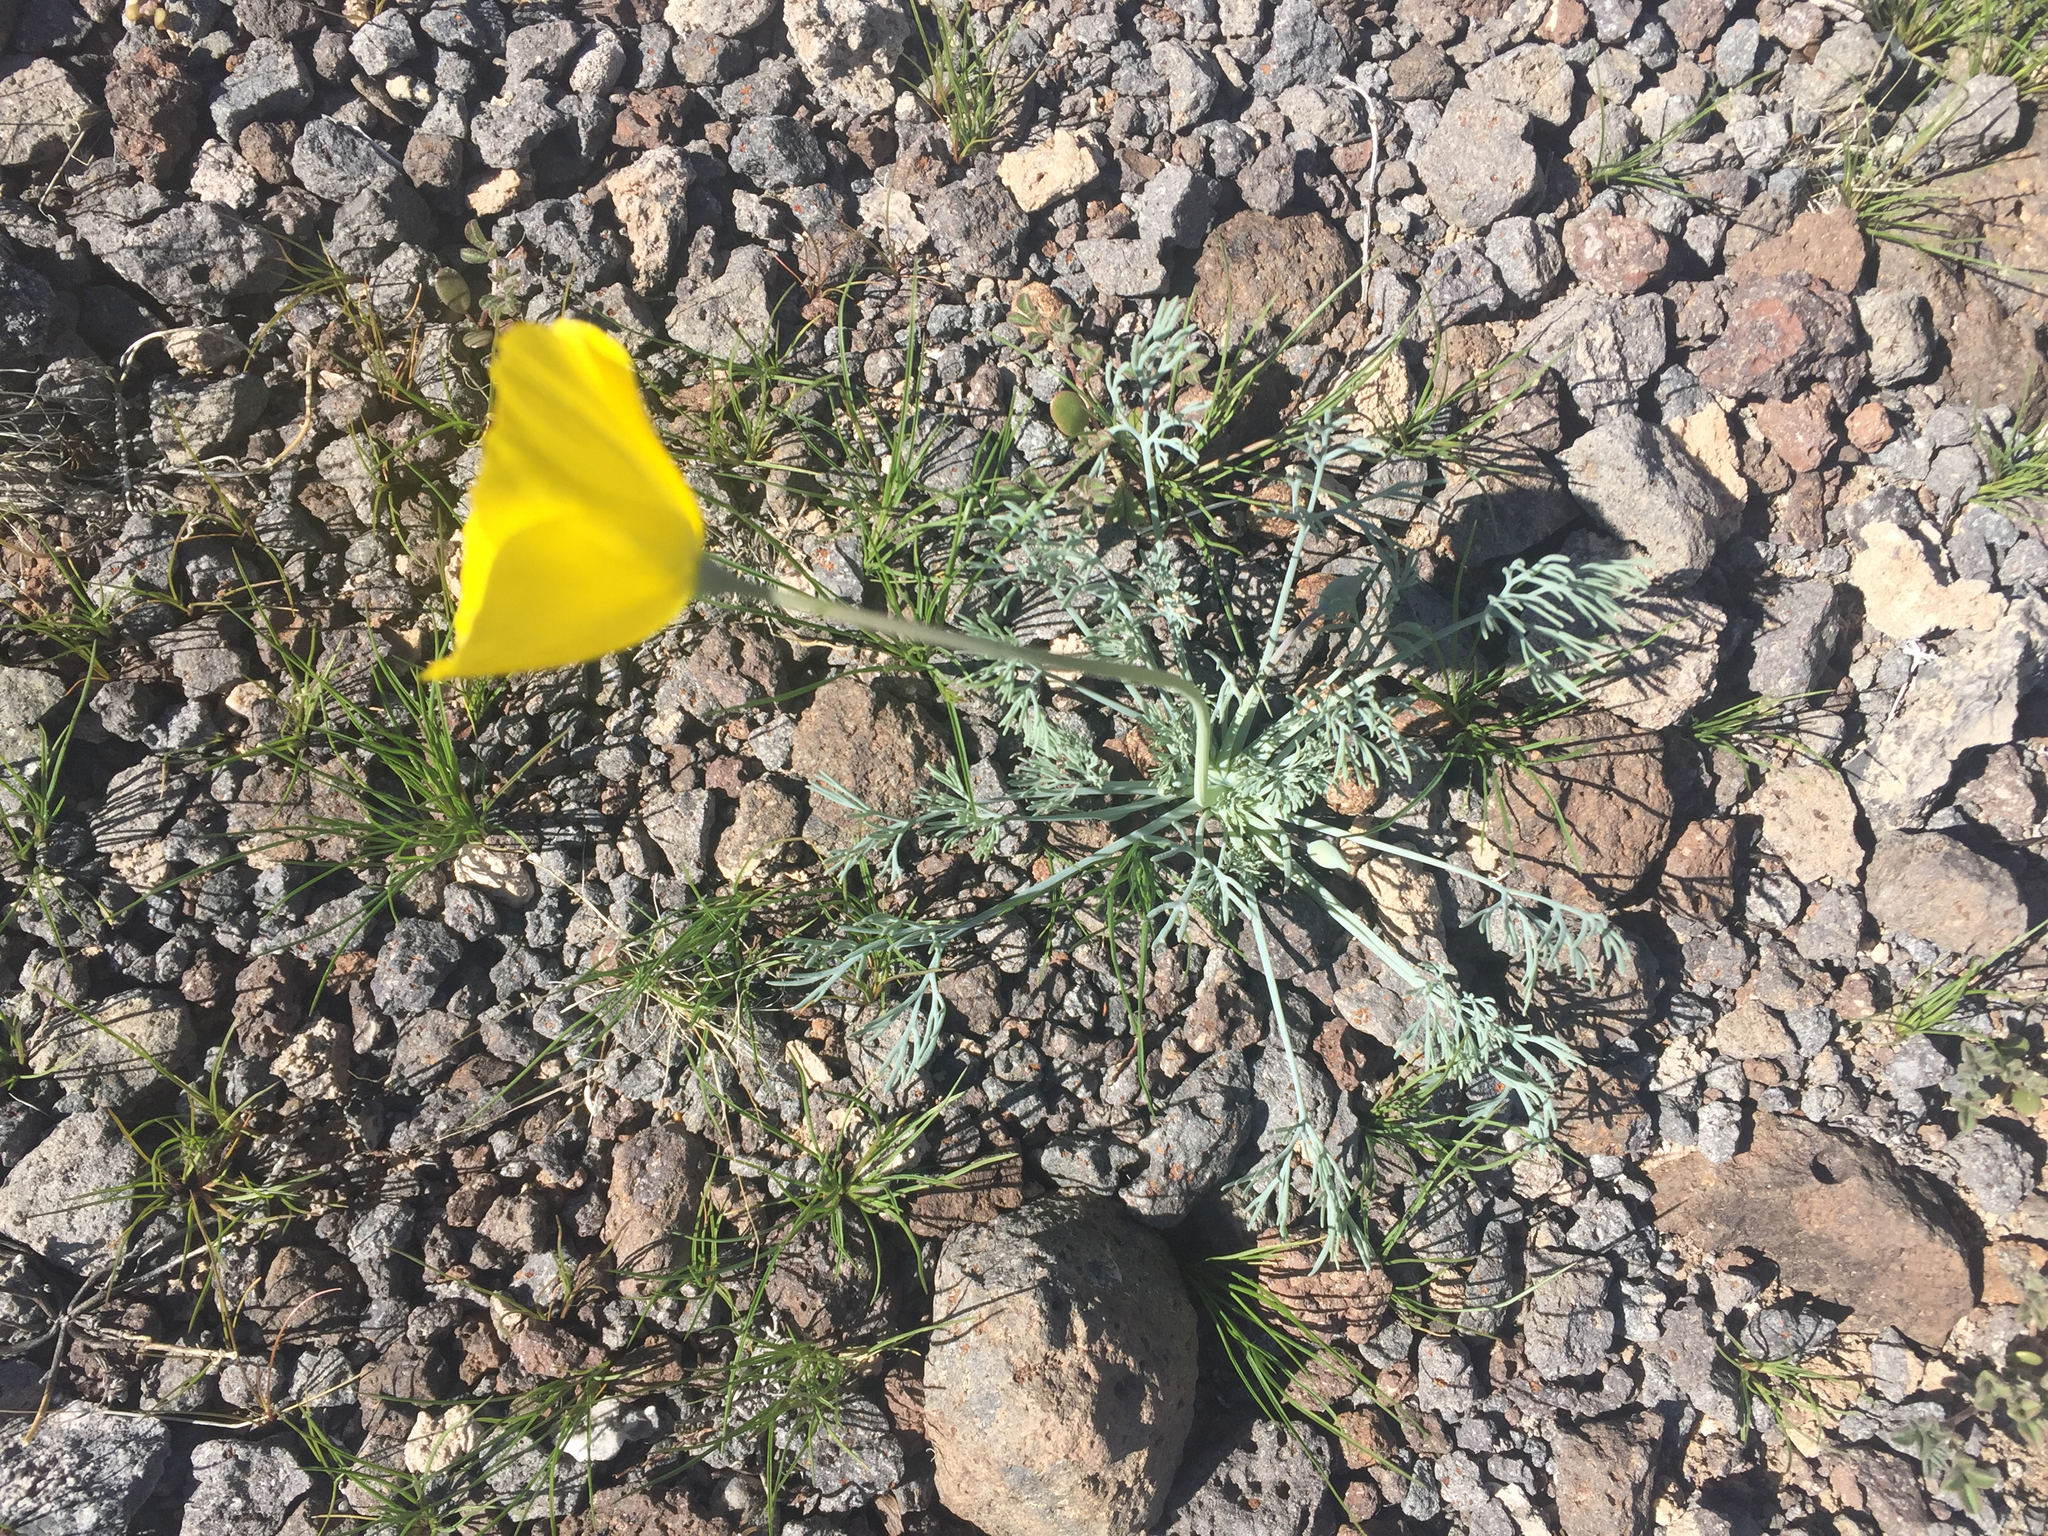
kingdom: Plantae
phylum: Tracheophyta
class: Magnoliopsida
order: Ranunculales
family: Papaveraceae
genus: Eschscholzia
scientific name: Eschscholzia glyptosperma
